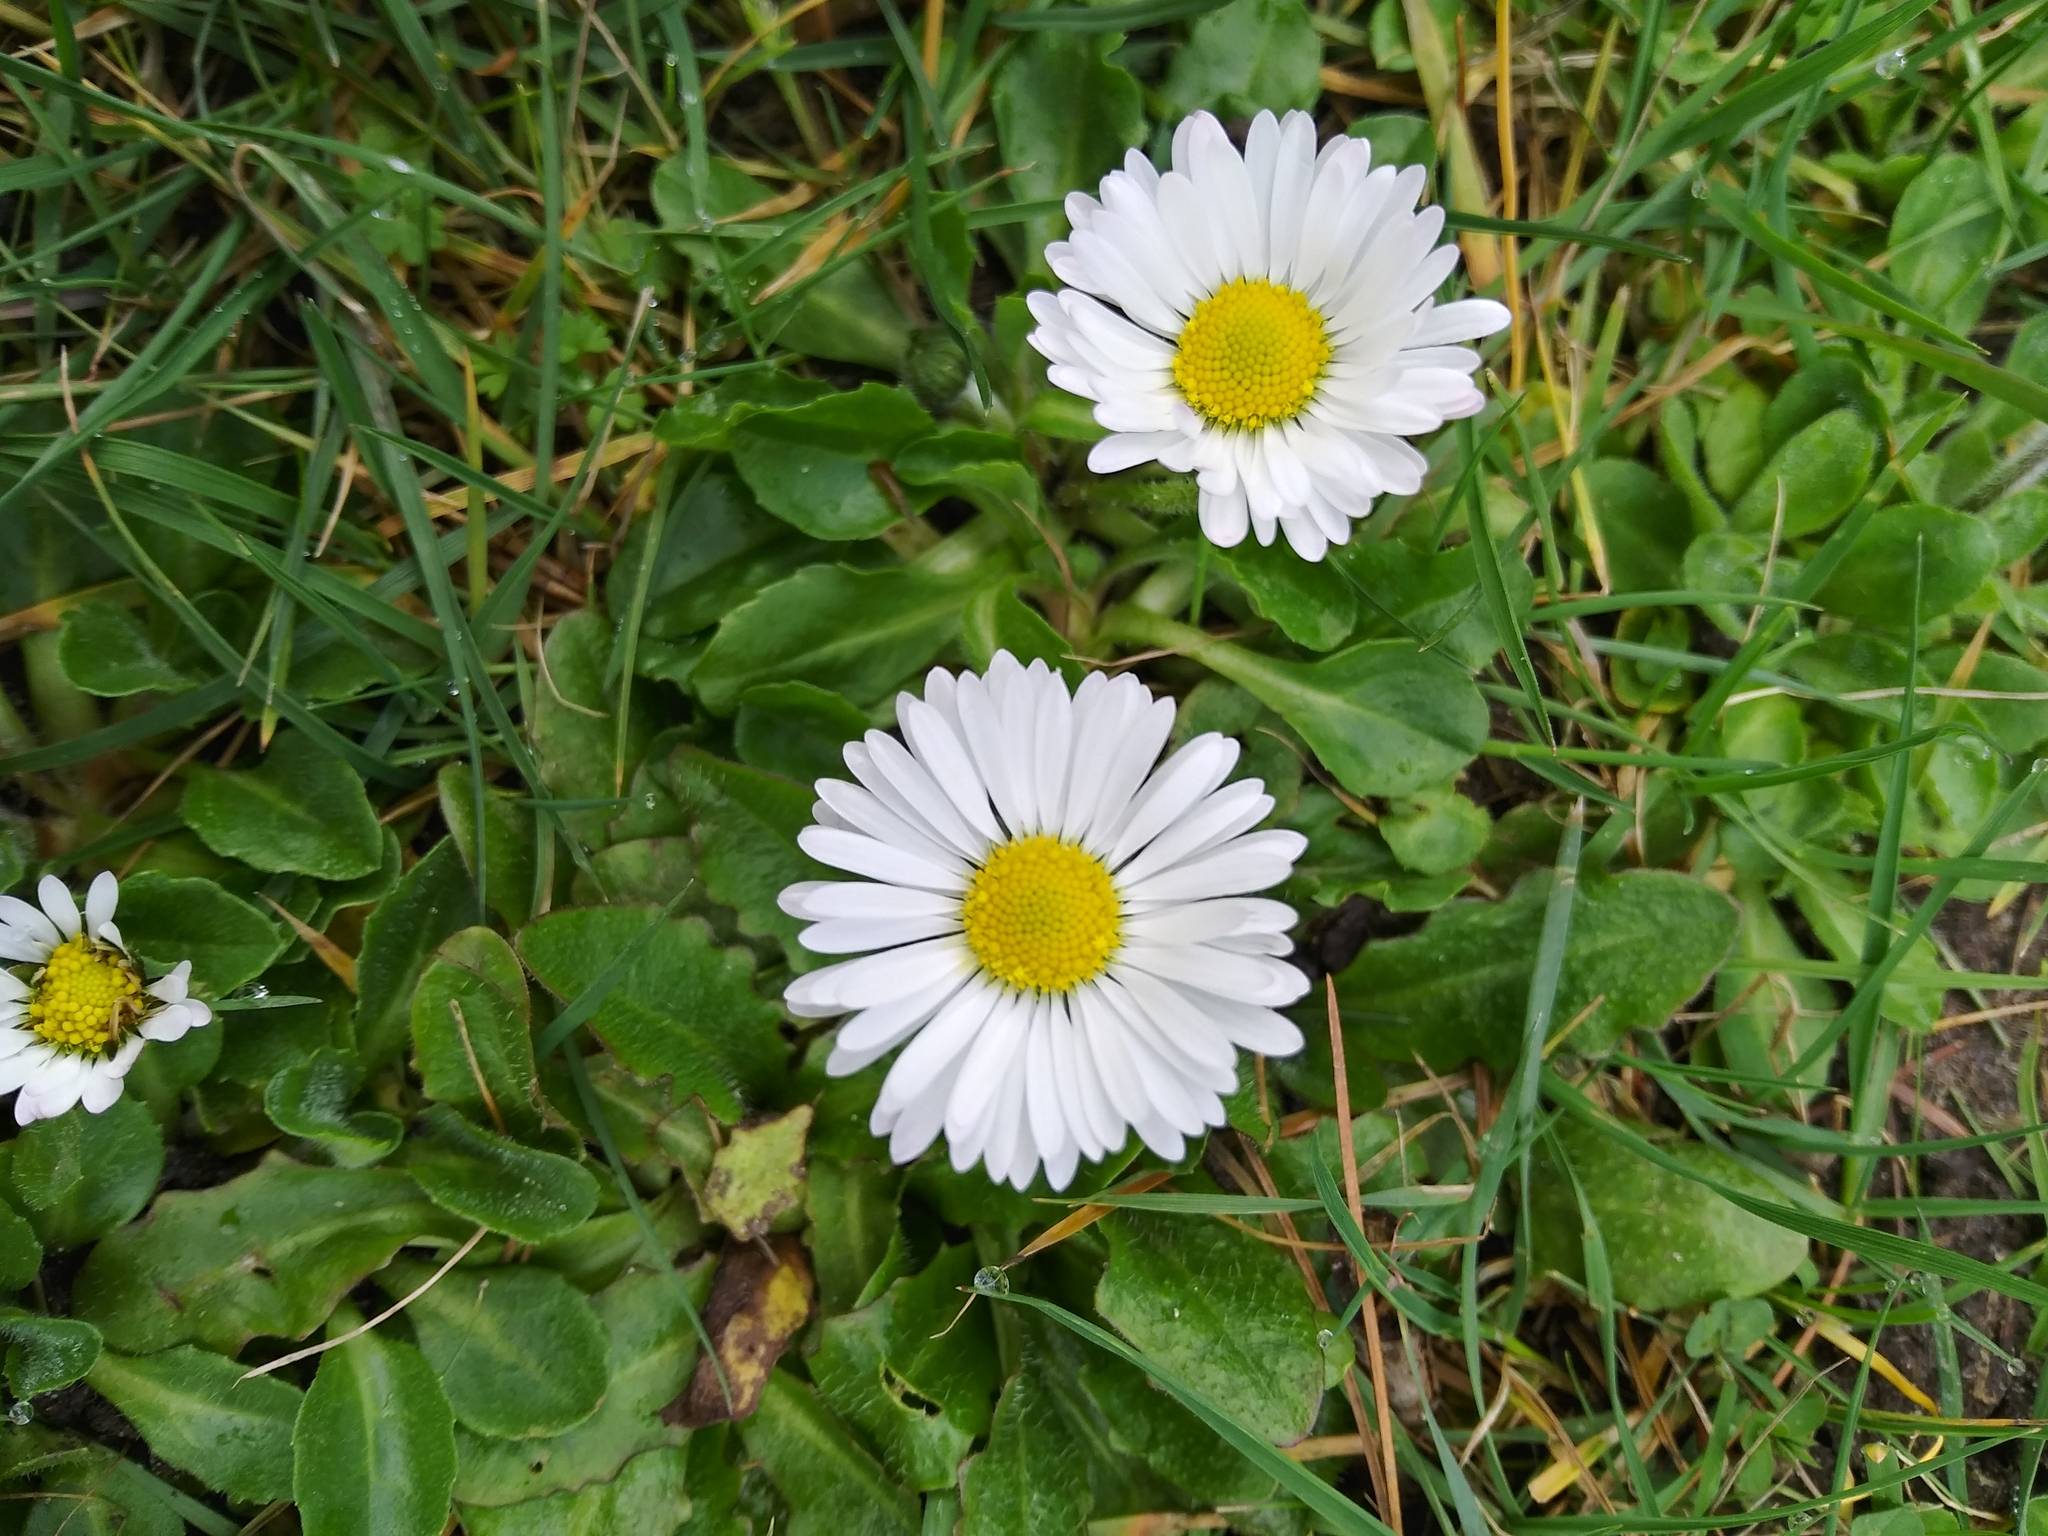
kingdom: Plantae
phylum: Tracheophyta
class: Magnoliopsida
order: Asterales
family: Asteraceae
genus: Bellis
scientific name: Bellis perennis
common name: Lawndaisy
